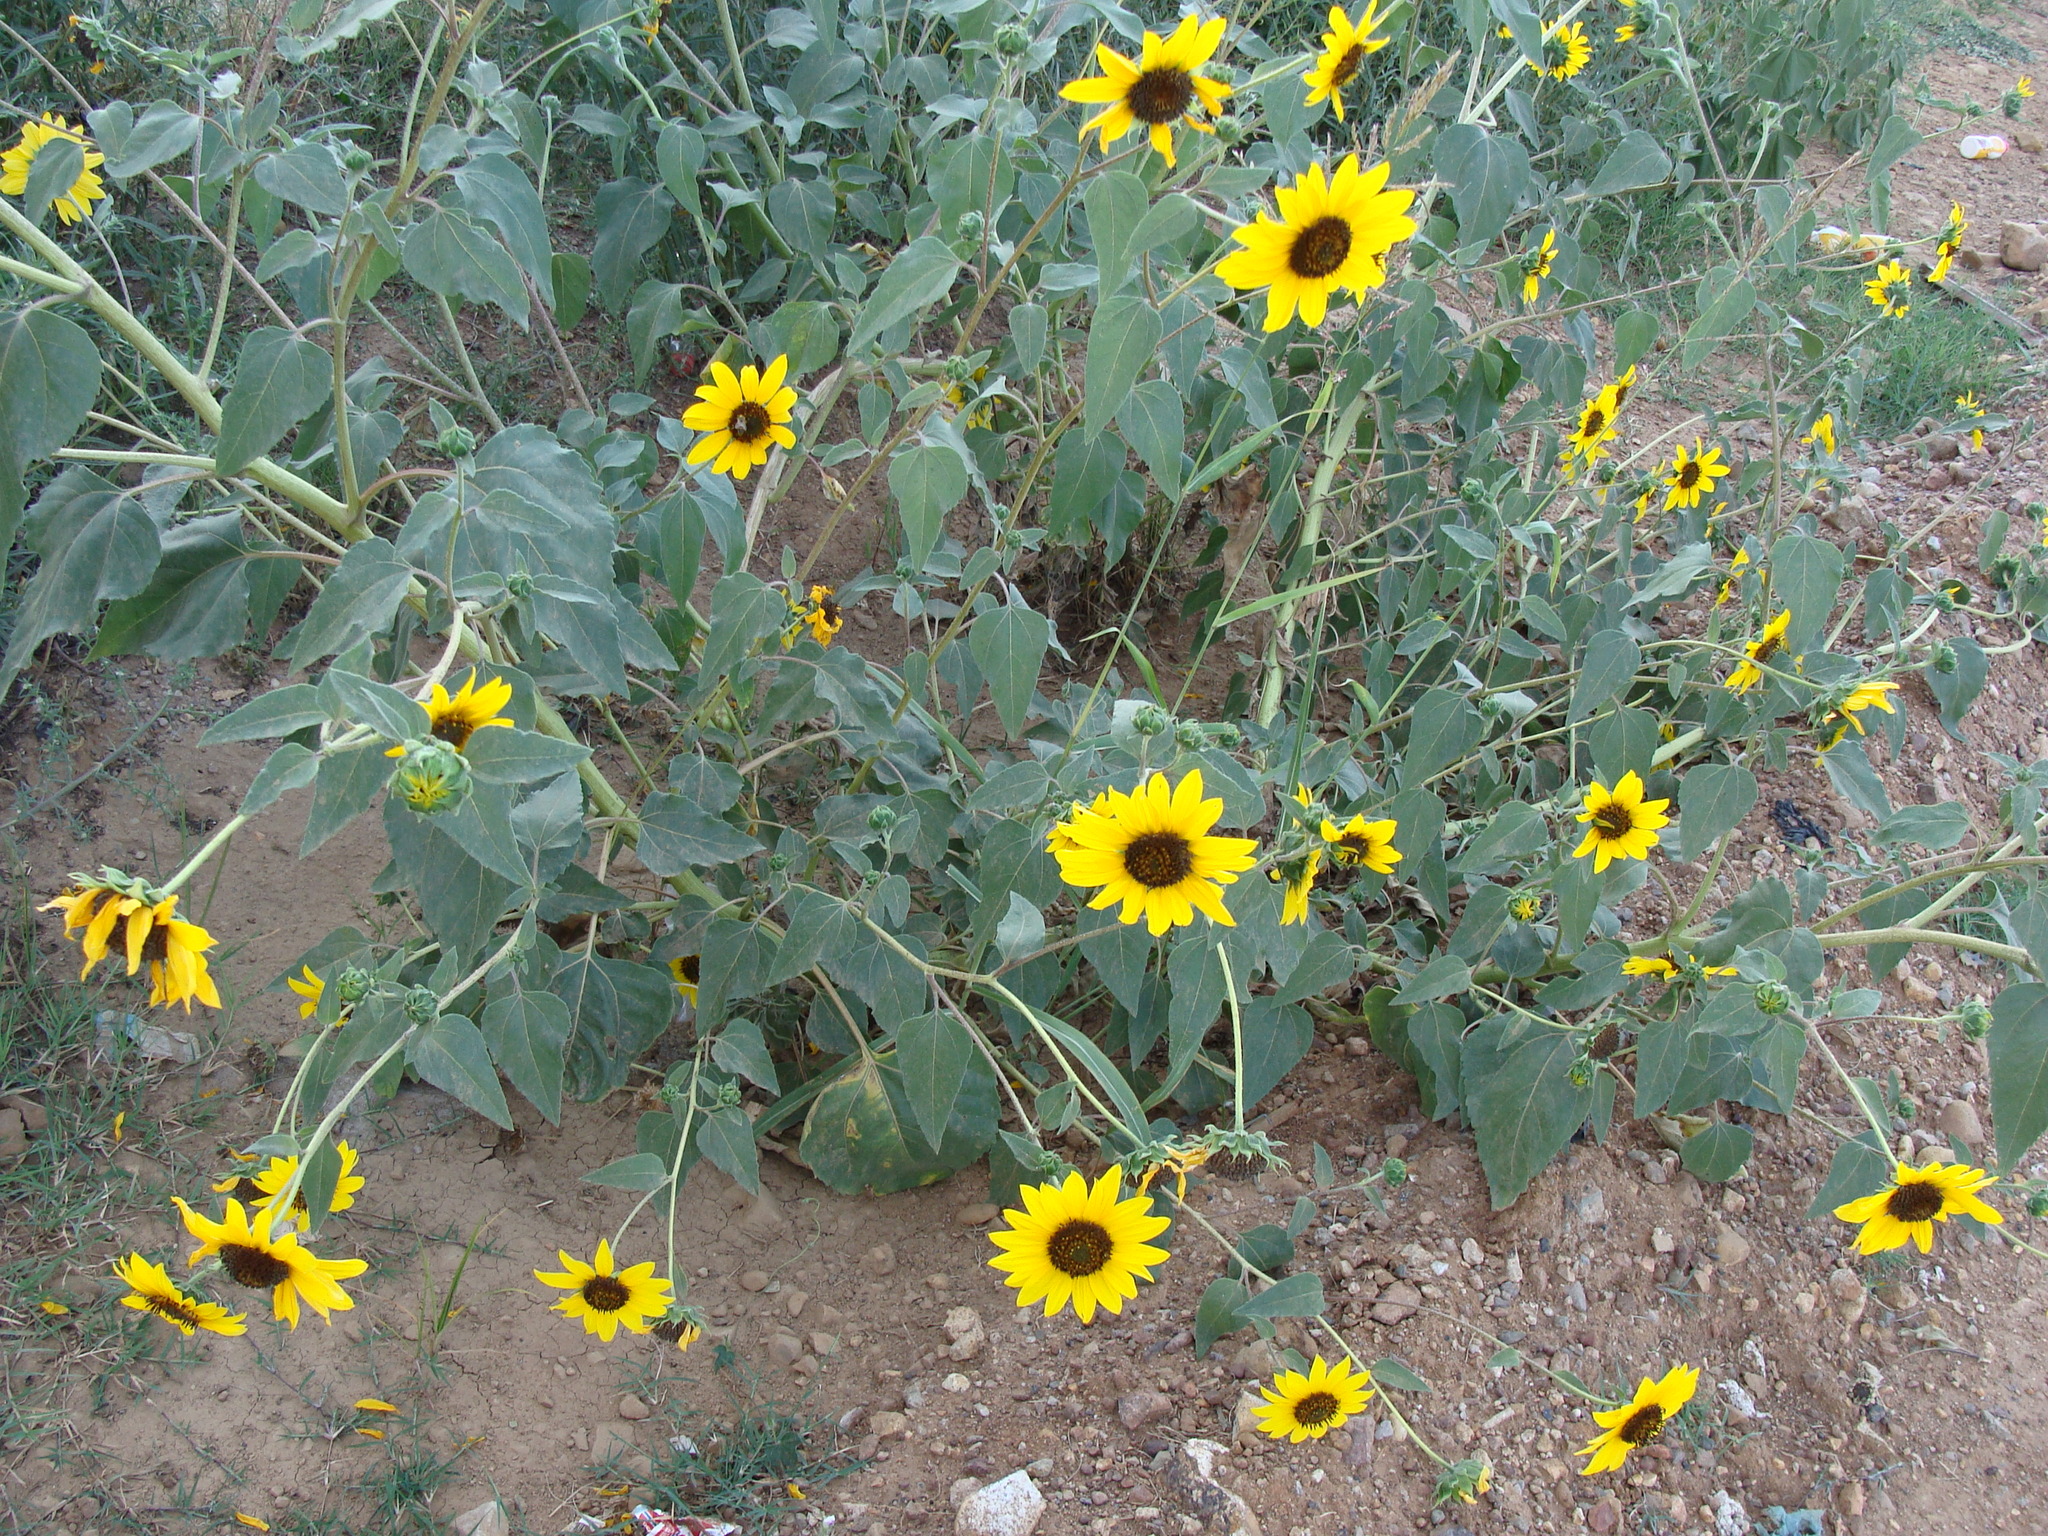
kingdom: Plantae
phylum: Tracheophyta
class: Magnoliopsida
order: Asterales
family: Asteraceae
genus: Helianthus
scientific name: Helianthus annuus
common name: Sunflower
